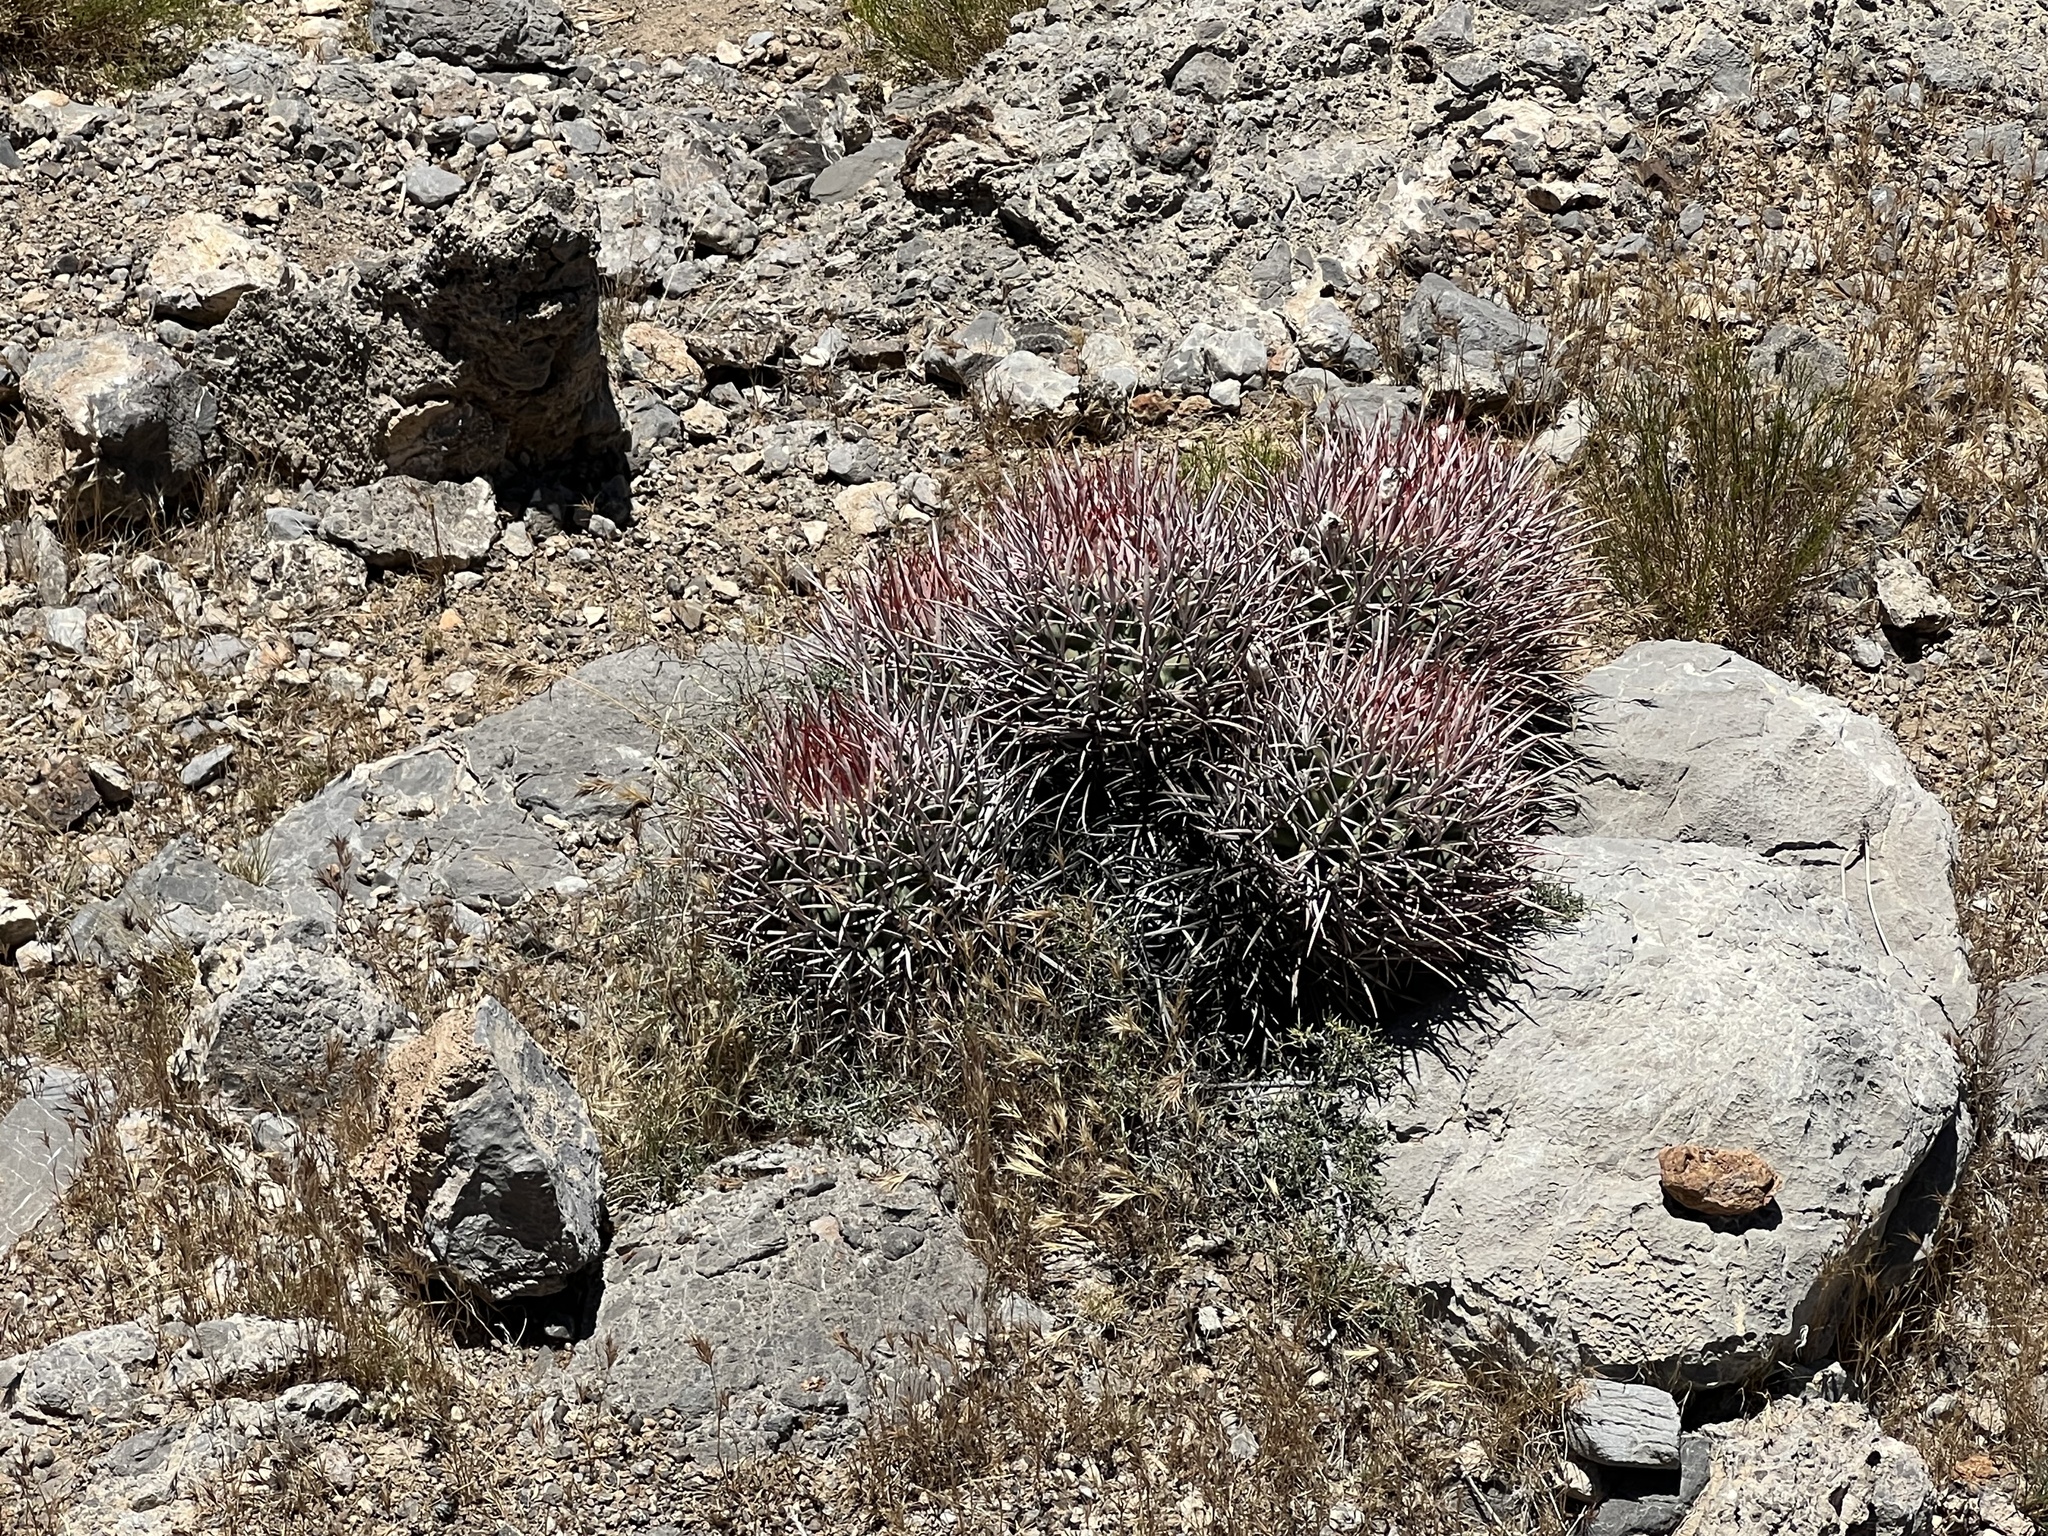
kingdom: Plantae
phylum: Tracheophyta
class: Magnoliopsida
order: Caryophyllales
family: Cactaceae
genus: Echinocactus
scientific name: Echinocactus polycephalus
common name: Cottontop cactus
